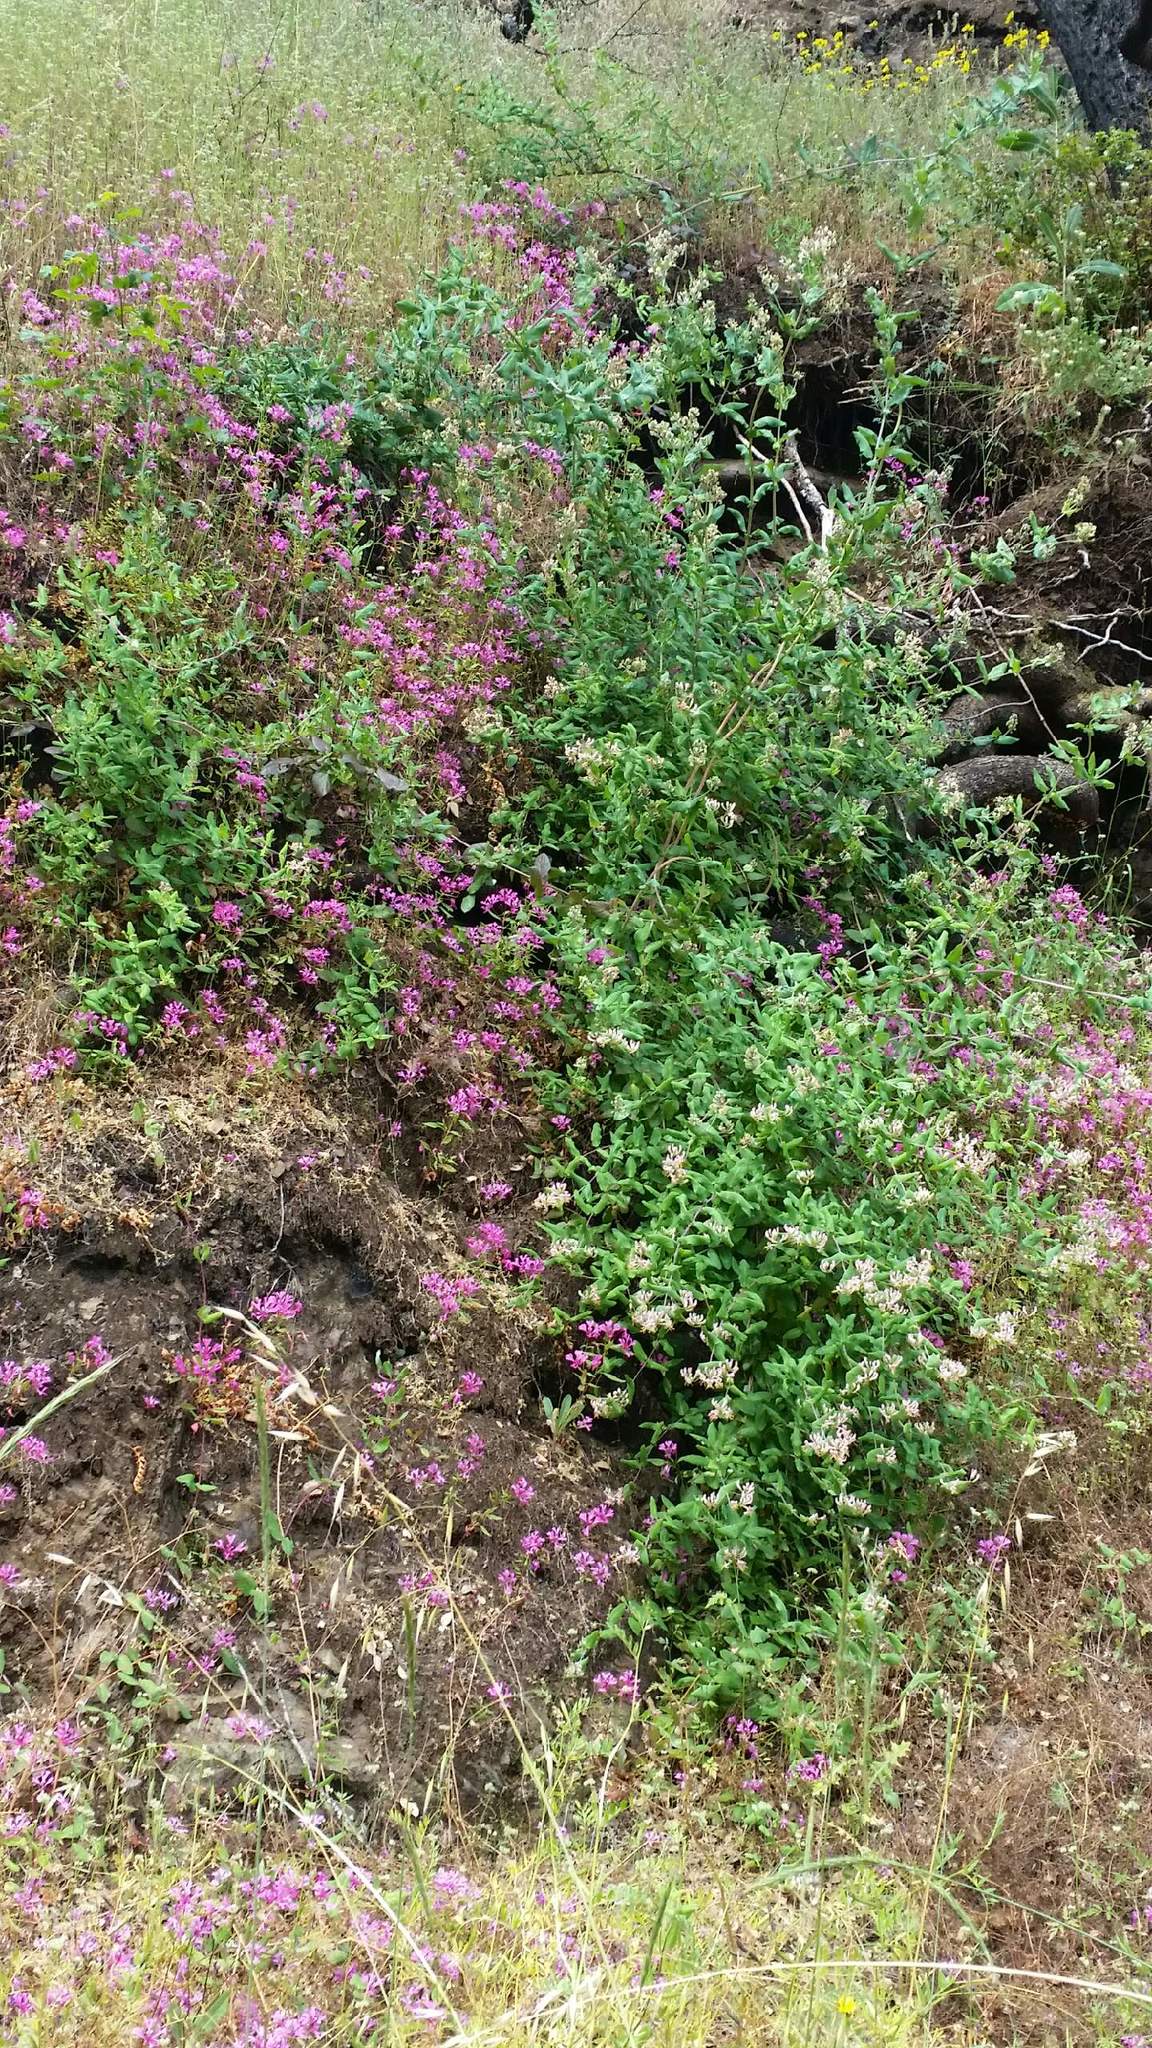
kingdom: Plantae
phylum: Tracheophyta
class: Magnoliopsida
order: Myrtales
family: Onagraceae
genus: Clarkia
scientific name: Clarkia concinna
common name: Red-ribbons
